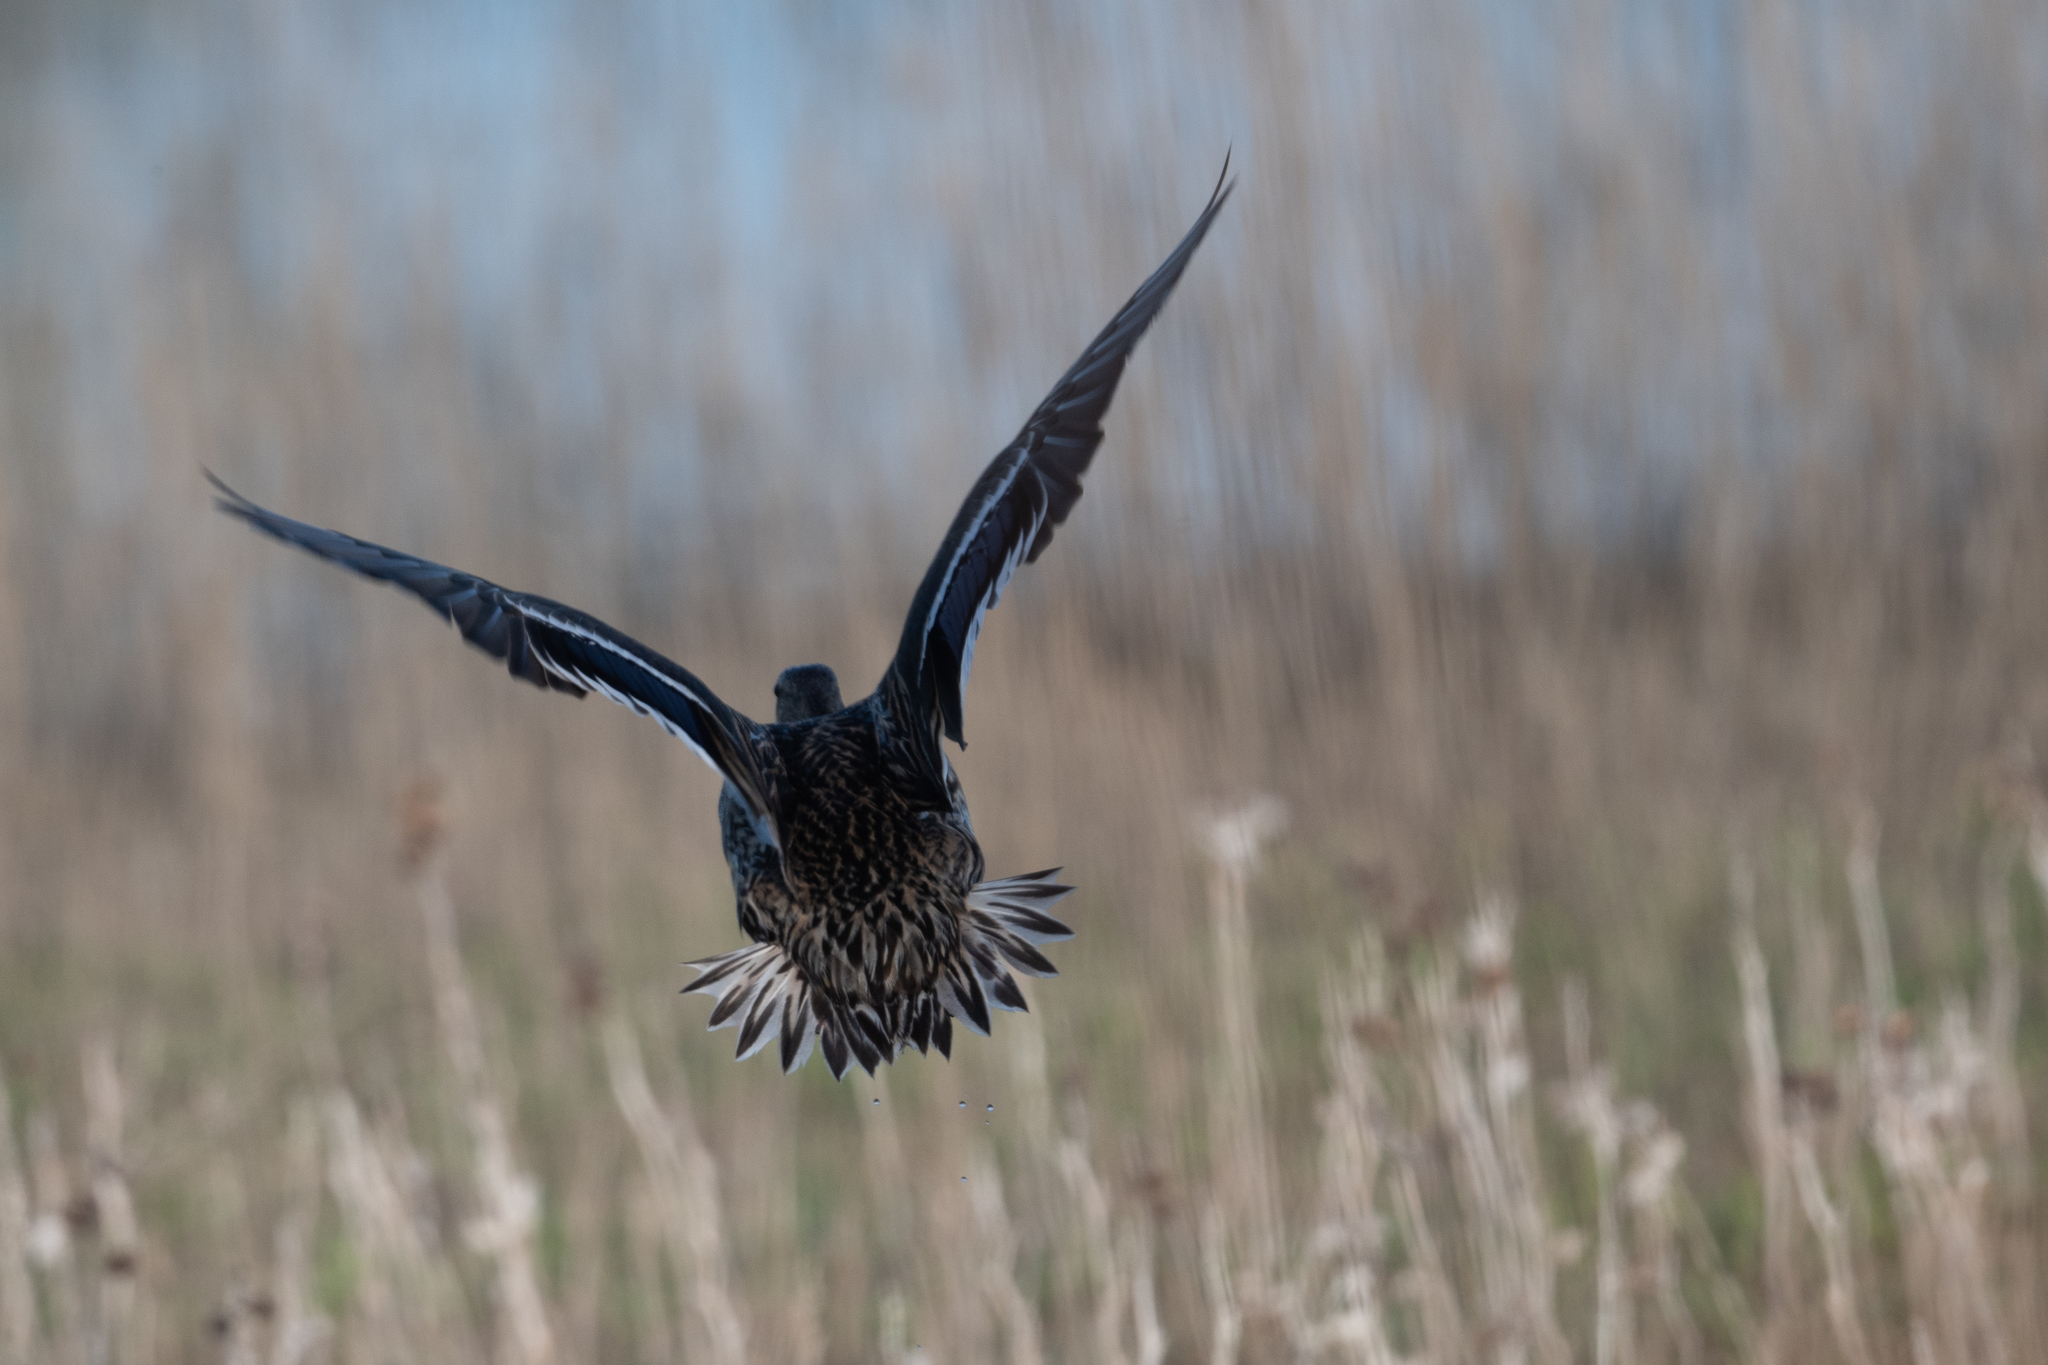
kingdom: Animalia
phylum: Chordata
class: Aves
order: Anseriformes
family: Anatidae
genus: Anas
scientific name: Anas platyrhynchos
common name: Mallard
